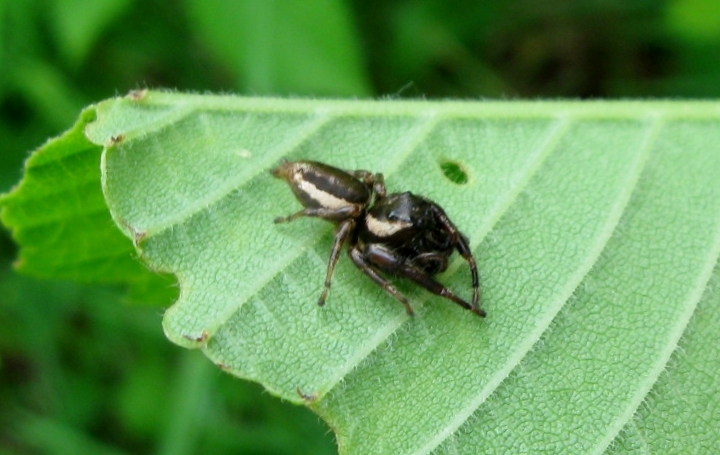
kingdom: Animalia
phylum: Arthropoda
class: Arachnida
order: Araneae
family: Salticidae
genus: Eris
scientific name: Eris militaris
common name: Bronze jumper
